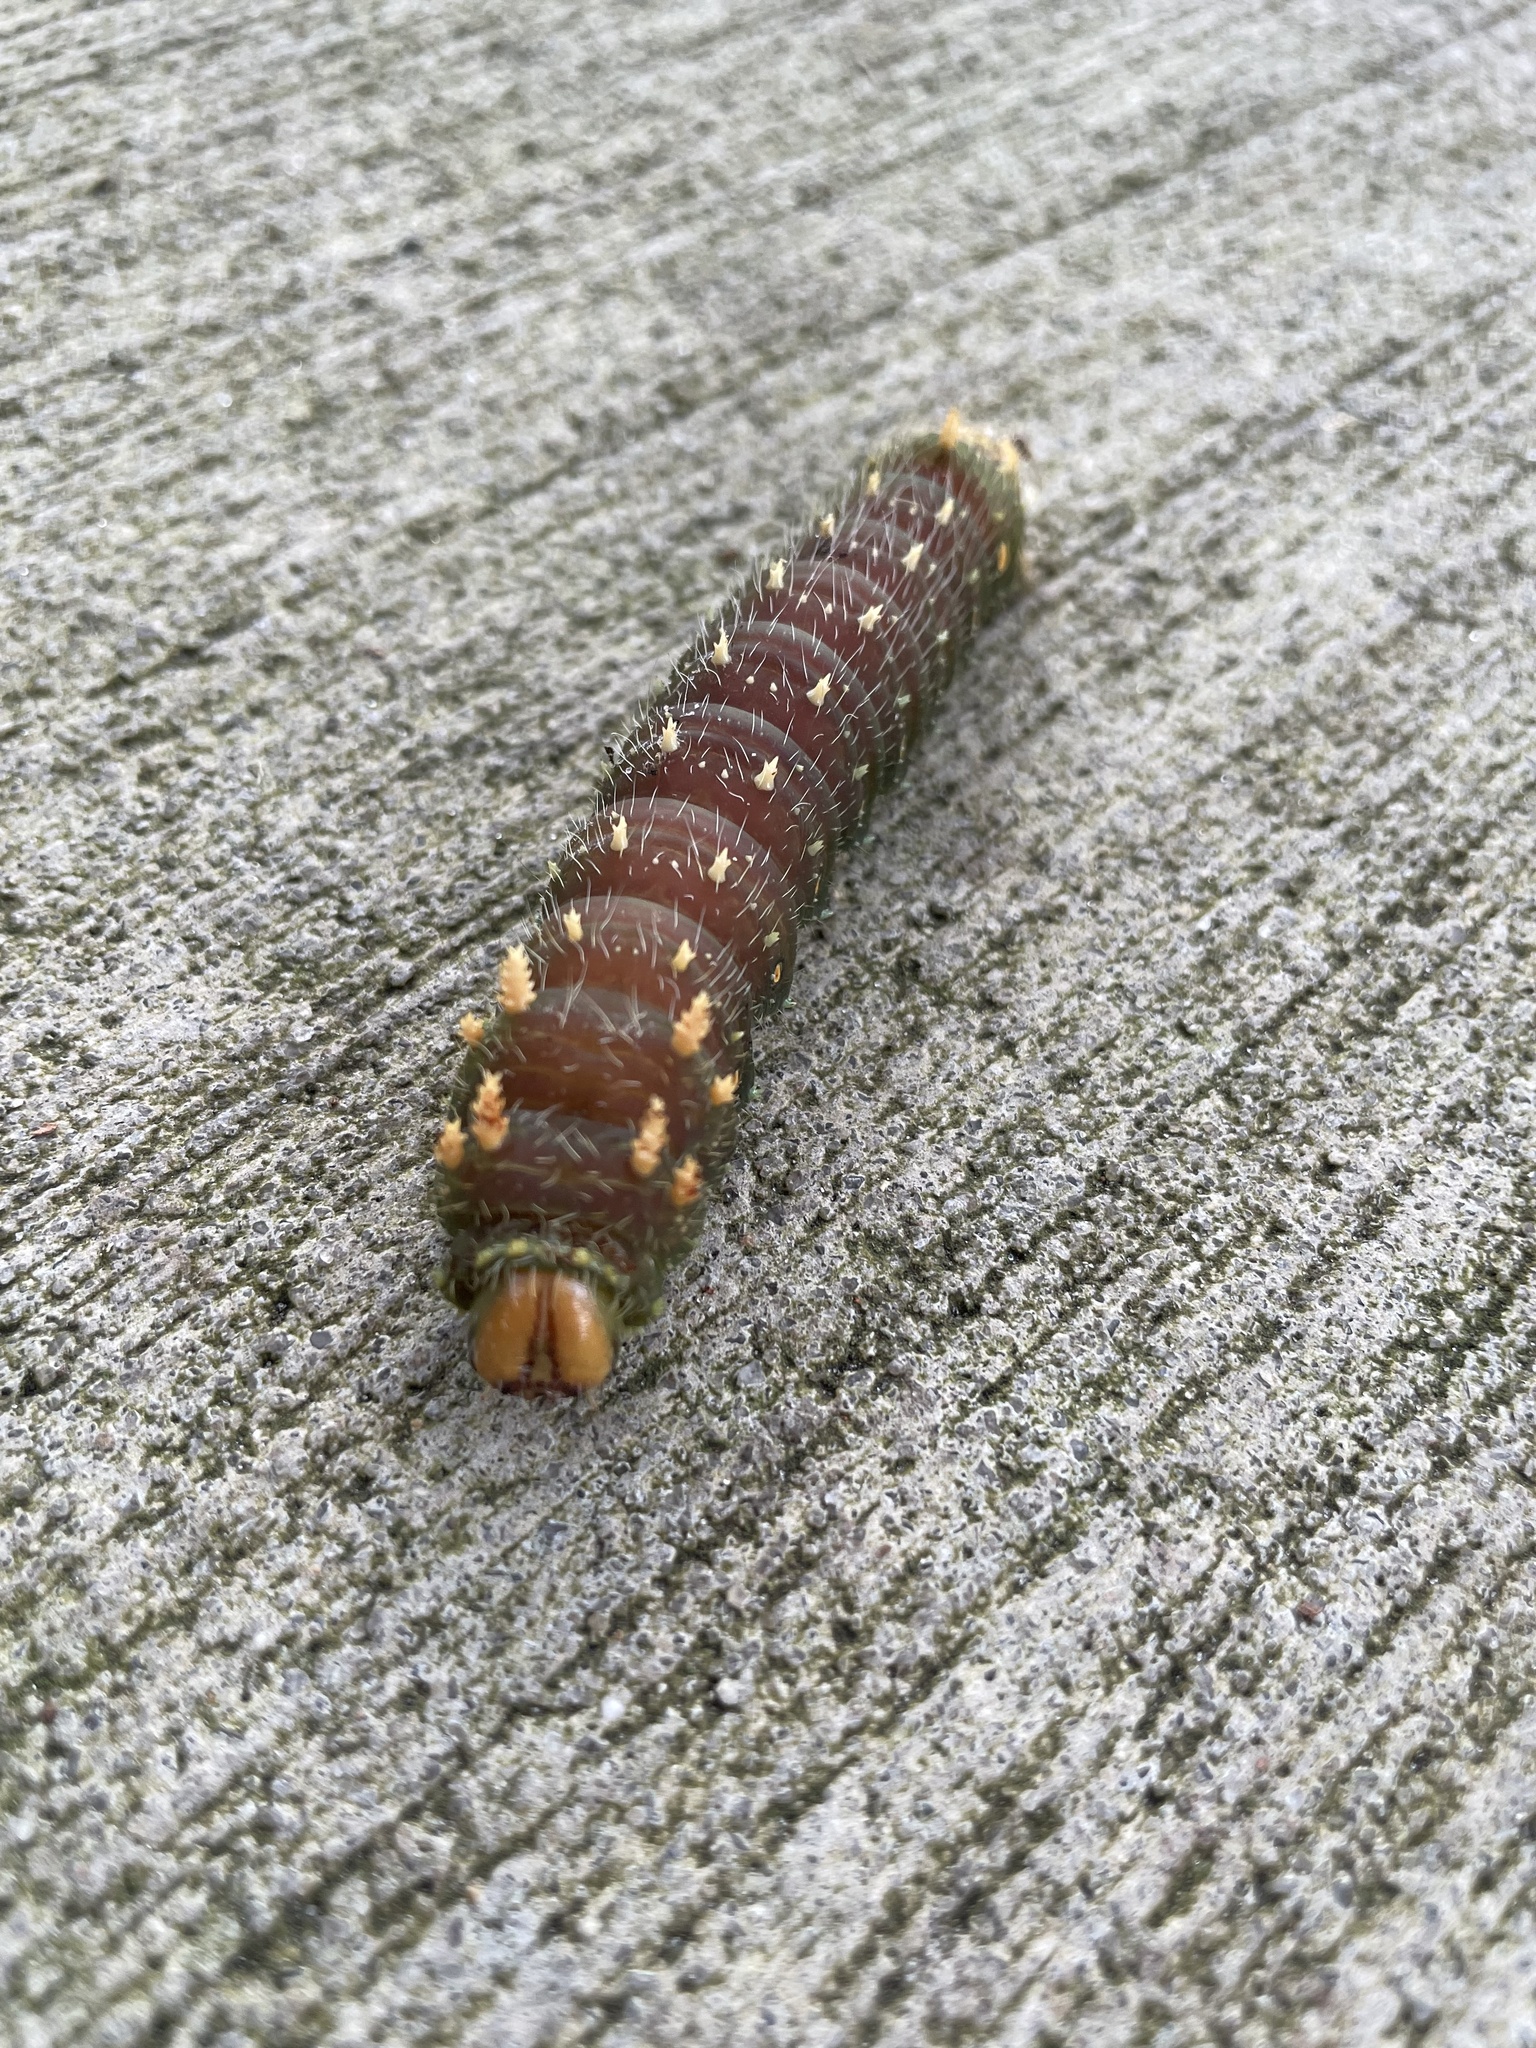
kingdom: Animalia
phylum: Arthropoda
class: Insecta
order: Lepidoptera
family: Saturniidae
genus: Eacles
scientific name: Eacles imperialis
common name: Imperial moth
